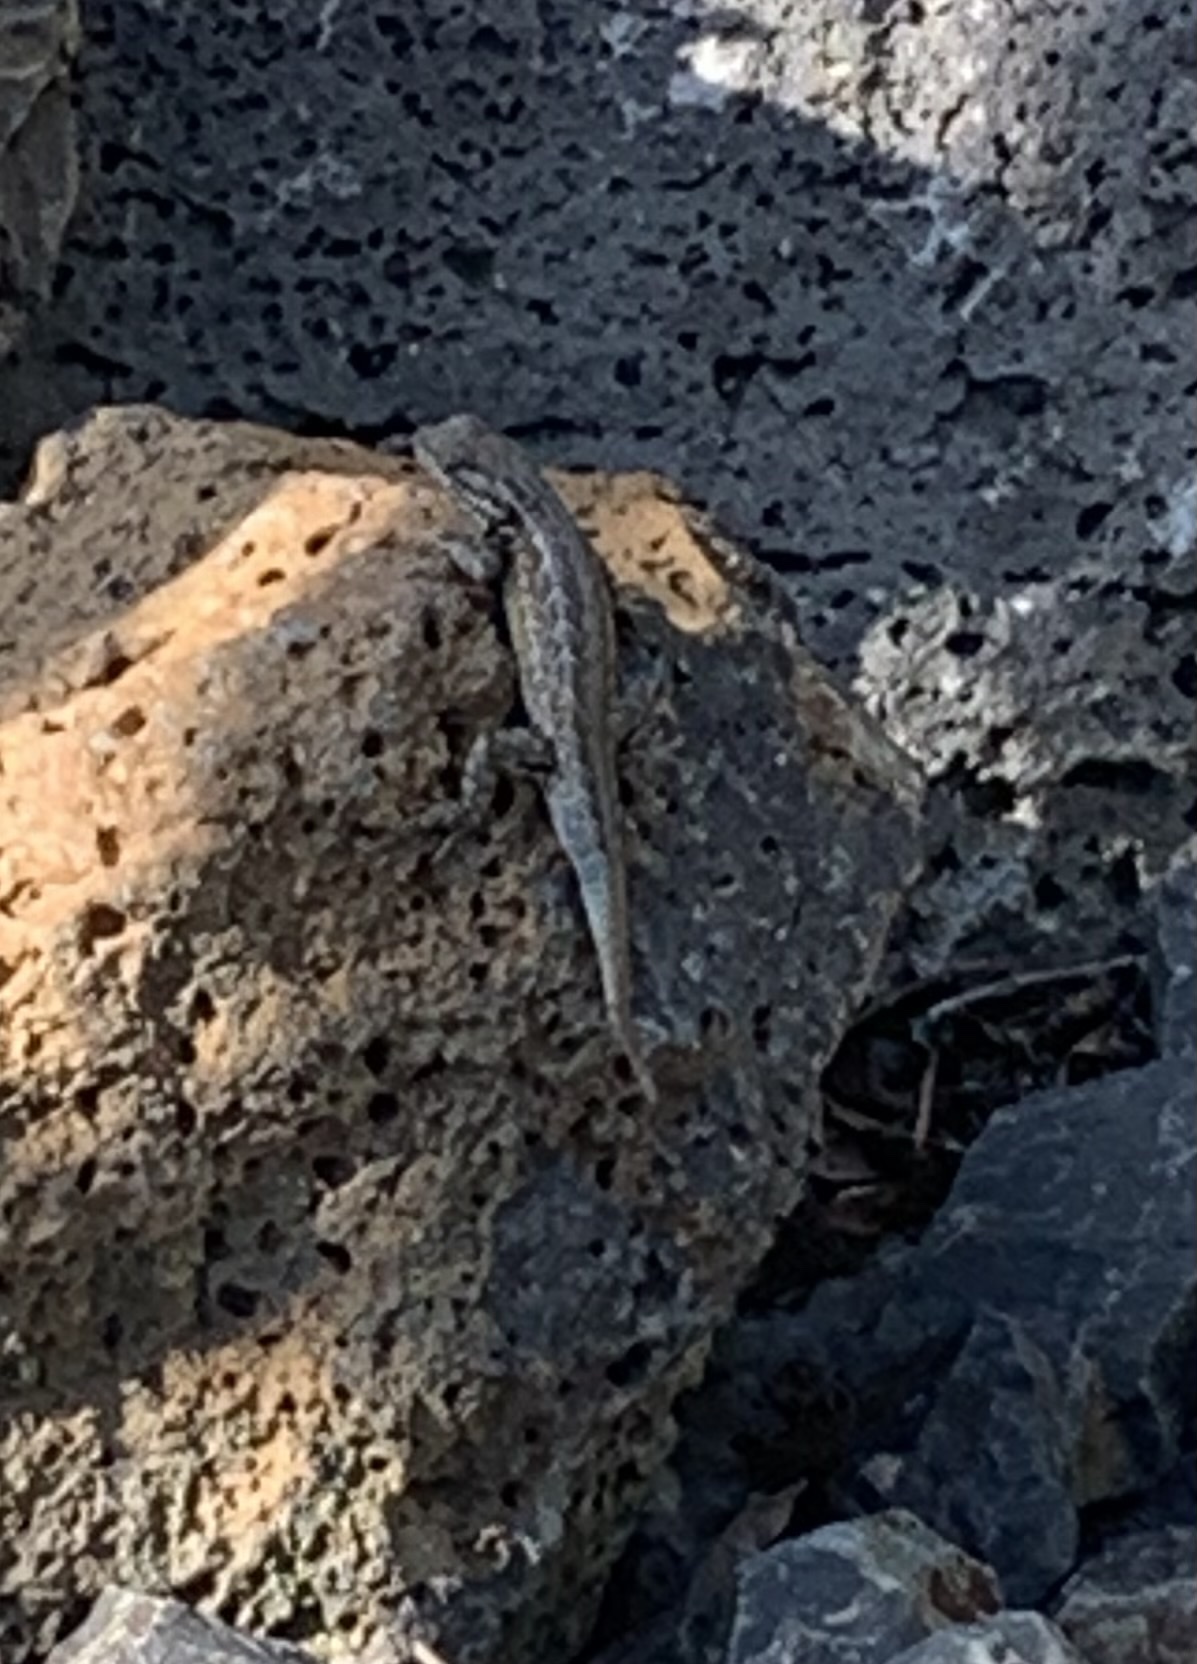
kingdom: Animalia
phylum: Chordata
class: Squamata
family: Phrynosomatidae
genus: Sceloporus
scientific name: Sceloporus graciosus
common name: Sagebrush lizard
